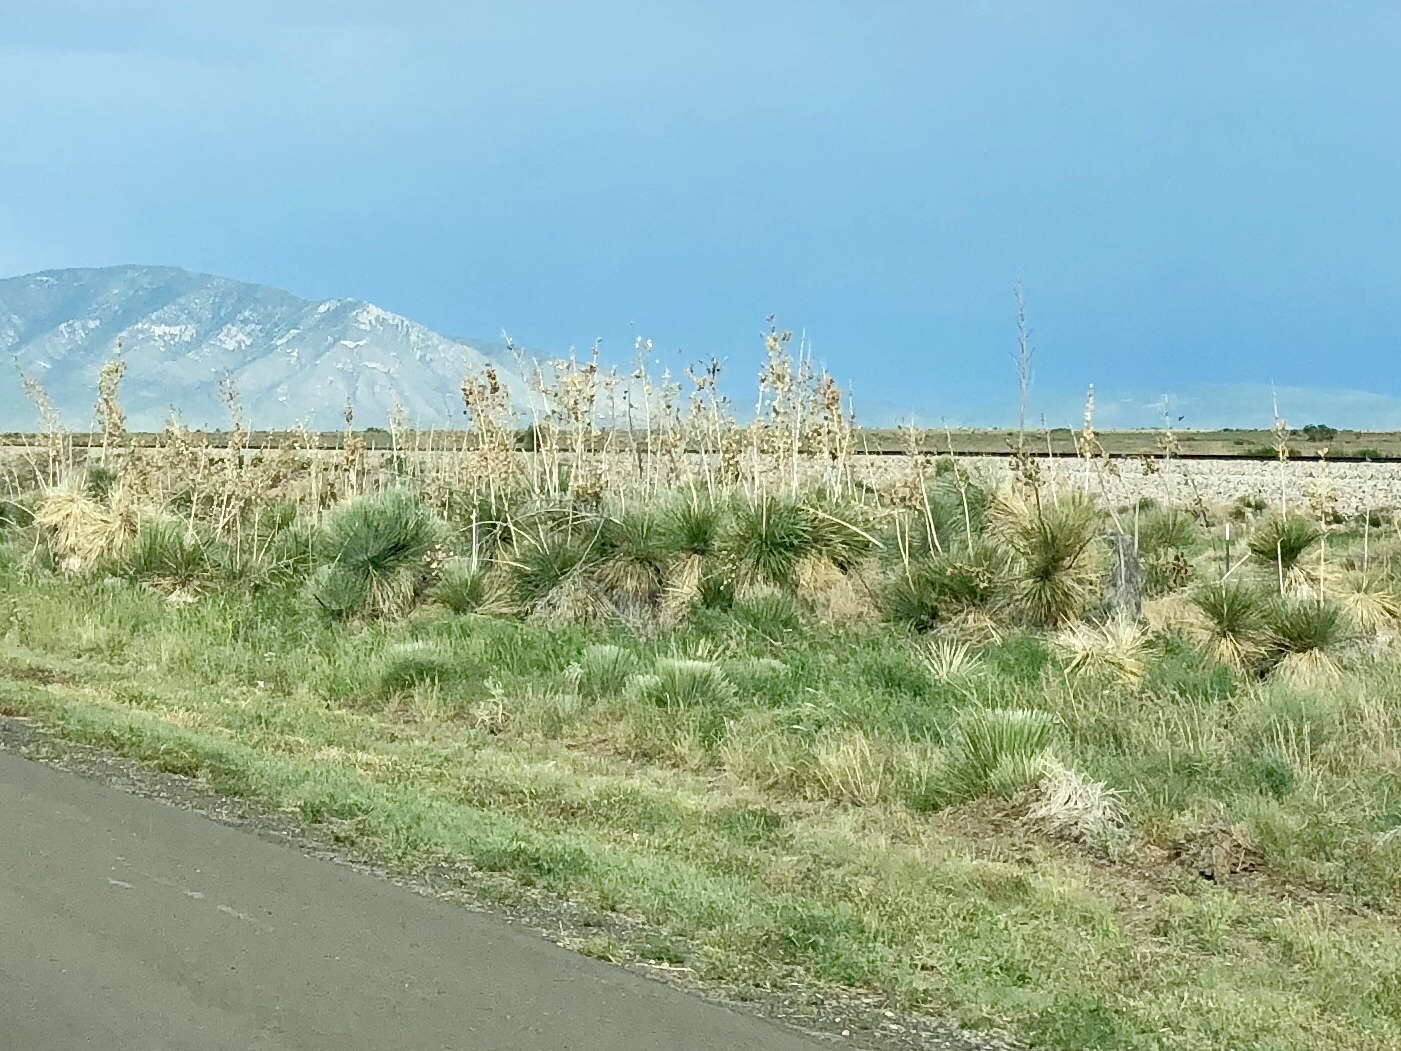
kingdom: Plantae
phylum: Tracheophyta
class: Liliopsida
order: Asparagales
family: Asparagaceae
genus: Yucca
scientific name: Yucca elata
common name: Palmella
